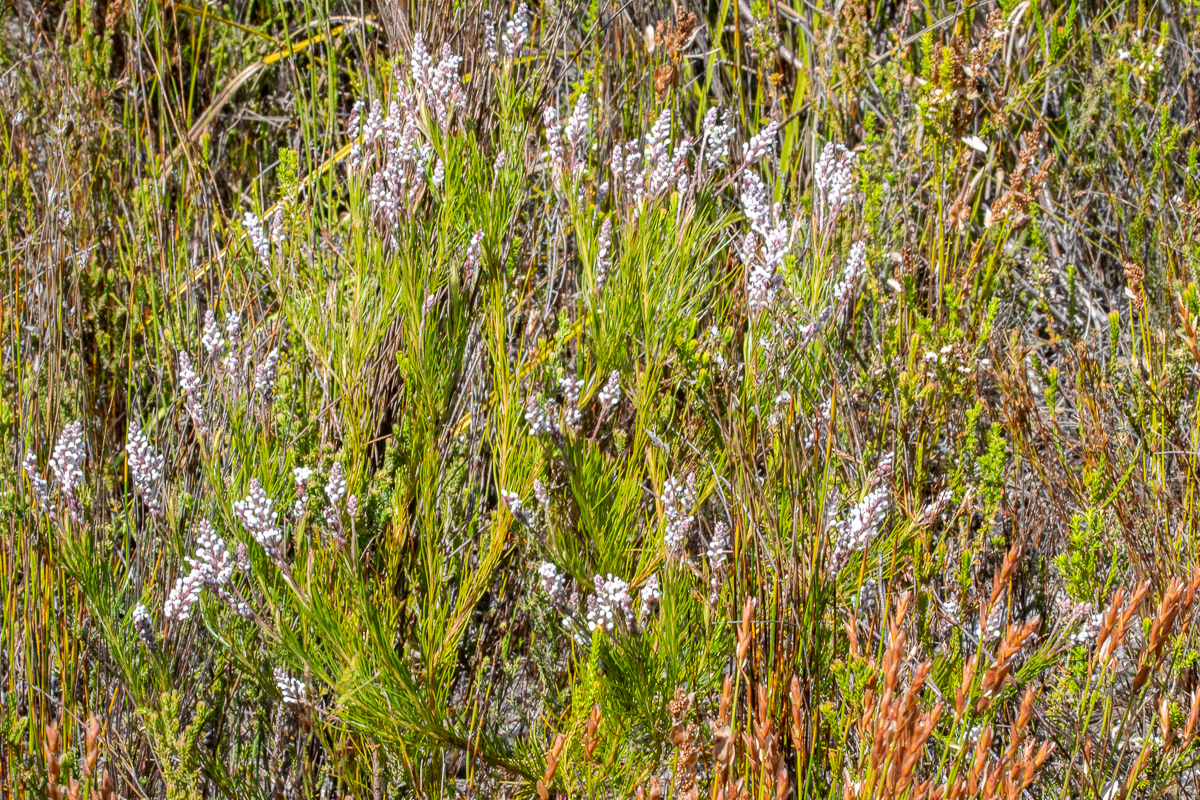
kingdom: Plantae
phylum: Tracheophyta
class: Magnoliopsida
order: Proteales
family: Proteaceae
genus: Spatalla
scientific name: Spatalla racemosa
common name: Lax-stalked spoon
